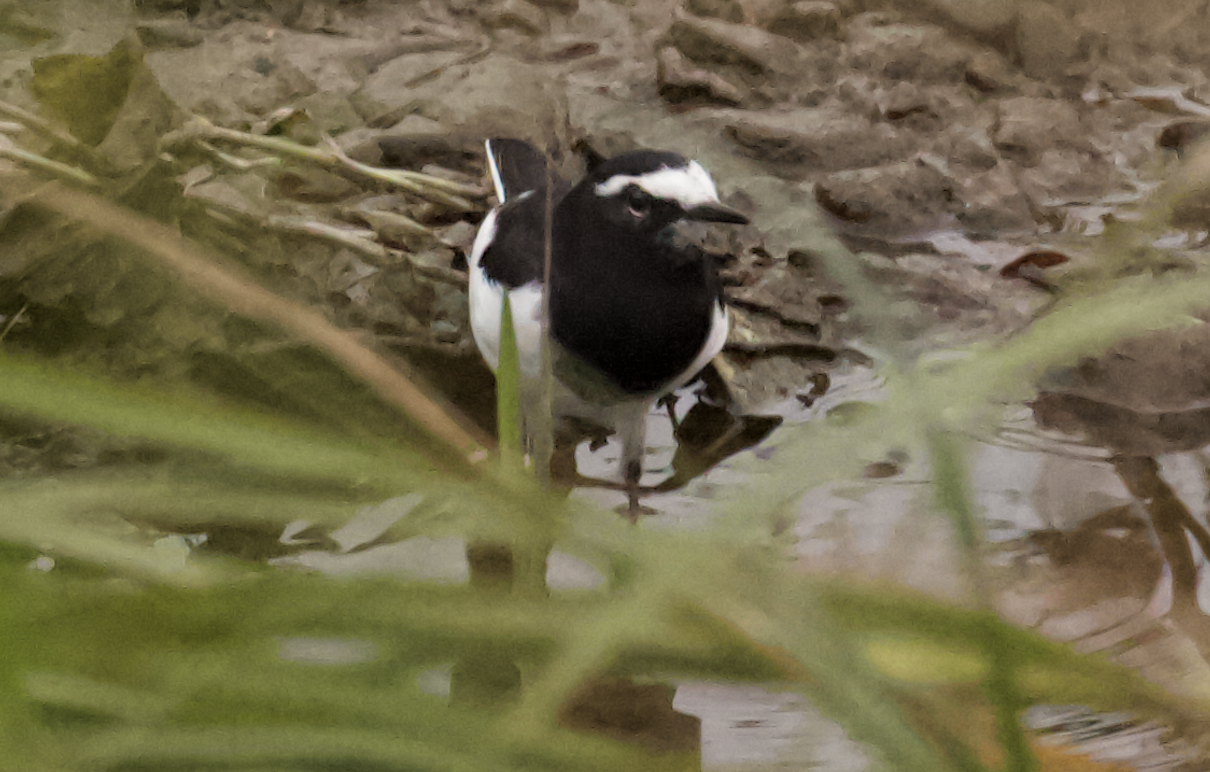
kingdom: Animalia
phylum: Chordata
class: Aves
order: Passeriformes
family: Motacillidae
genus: Motacilla
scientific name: Motacilla grandis
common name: Japanese wagtail
